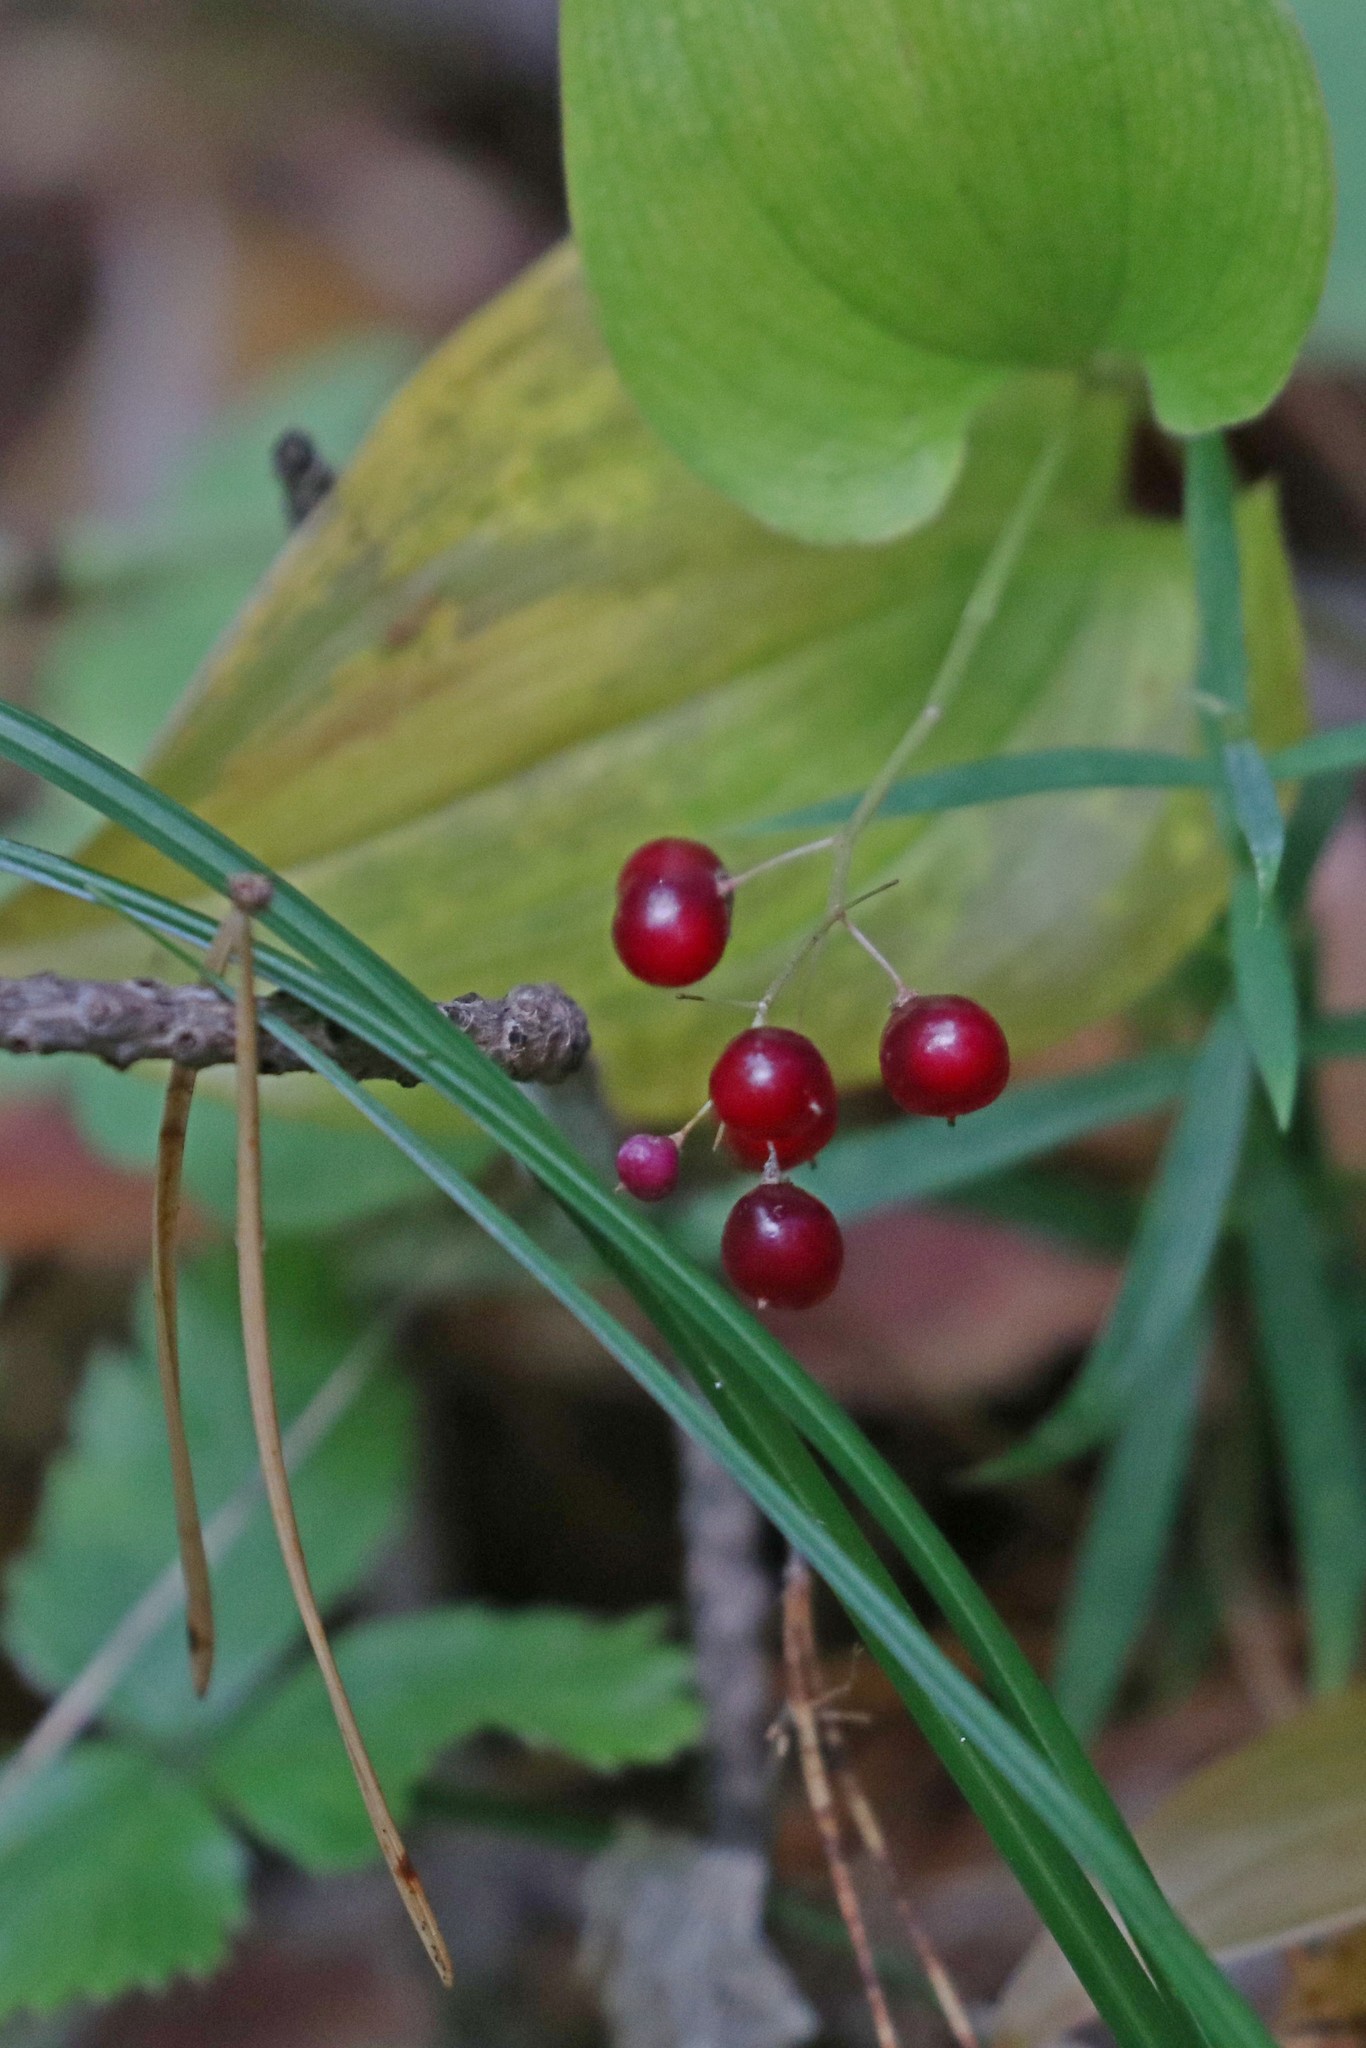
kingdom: Plantae
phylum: Tracheophyta
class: Liliopsida
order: Asparagales
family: Asparagaceae
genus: Maianthemum
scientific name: Maianthemum bifolium
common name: May lily
